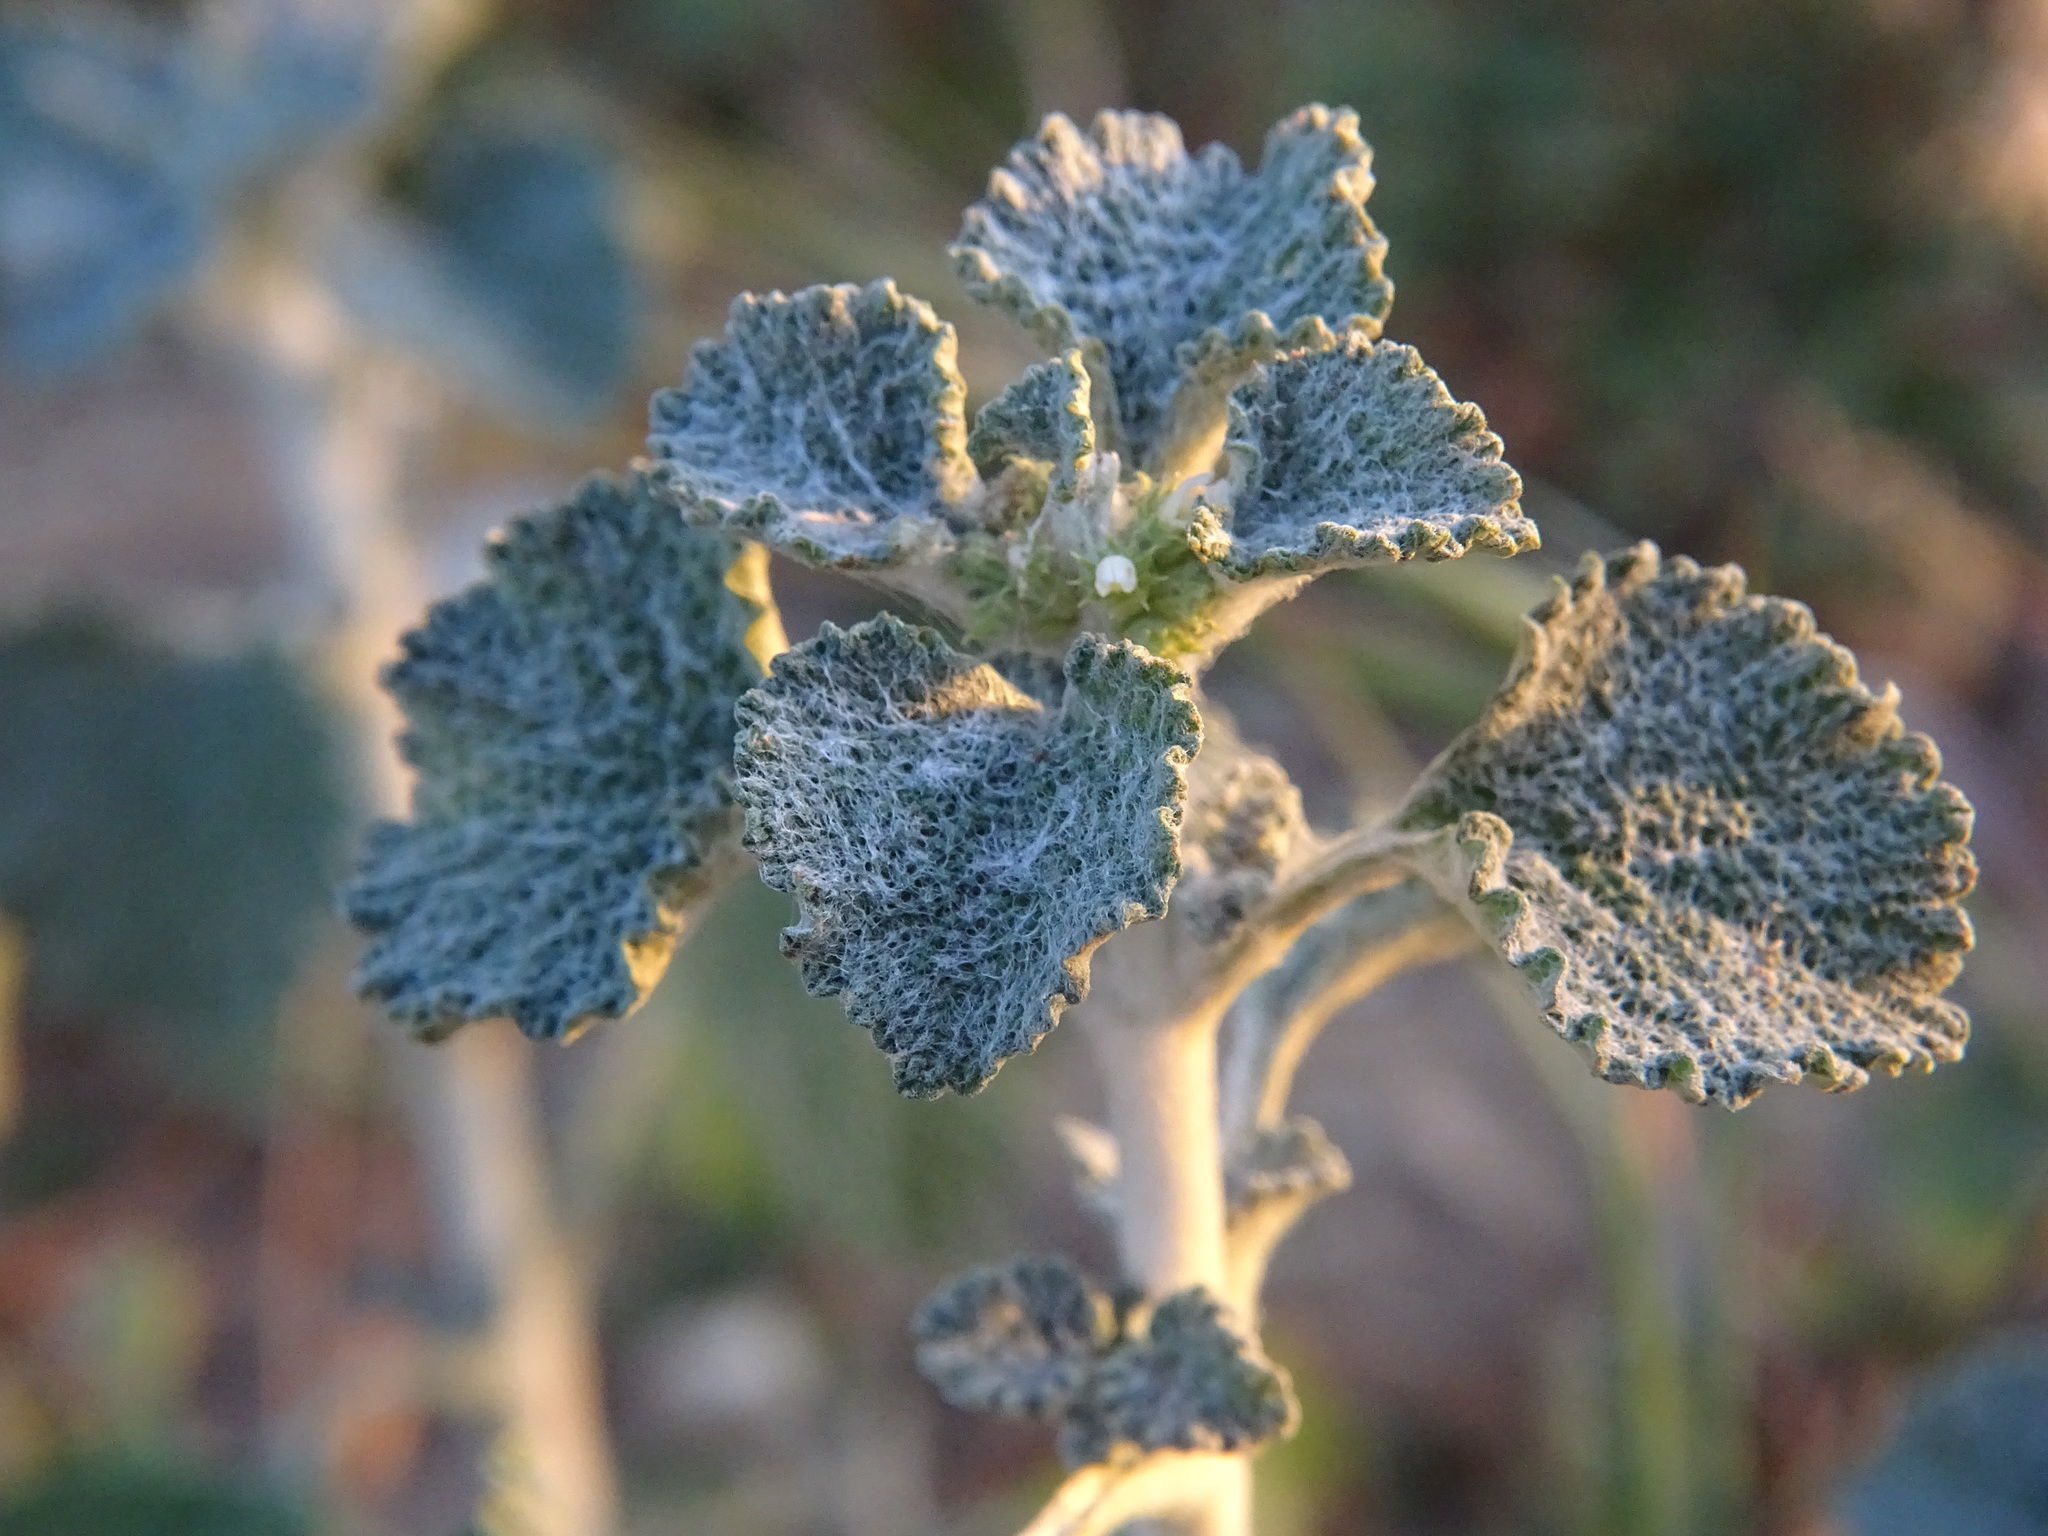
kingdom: Plantae
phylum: Tracheophyta
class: Magnoliopsida
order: Lamiales
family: Lamiaceae
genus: Marrubium
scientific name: Marrubium vulgare
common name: Horehound
